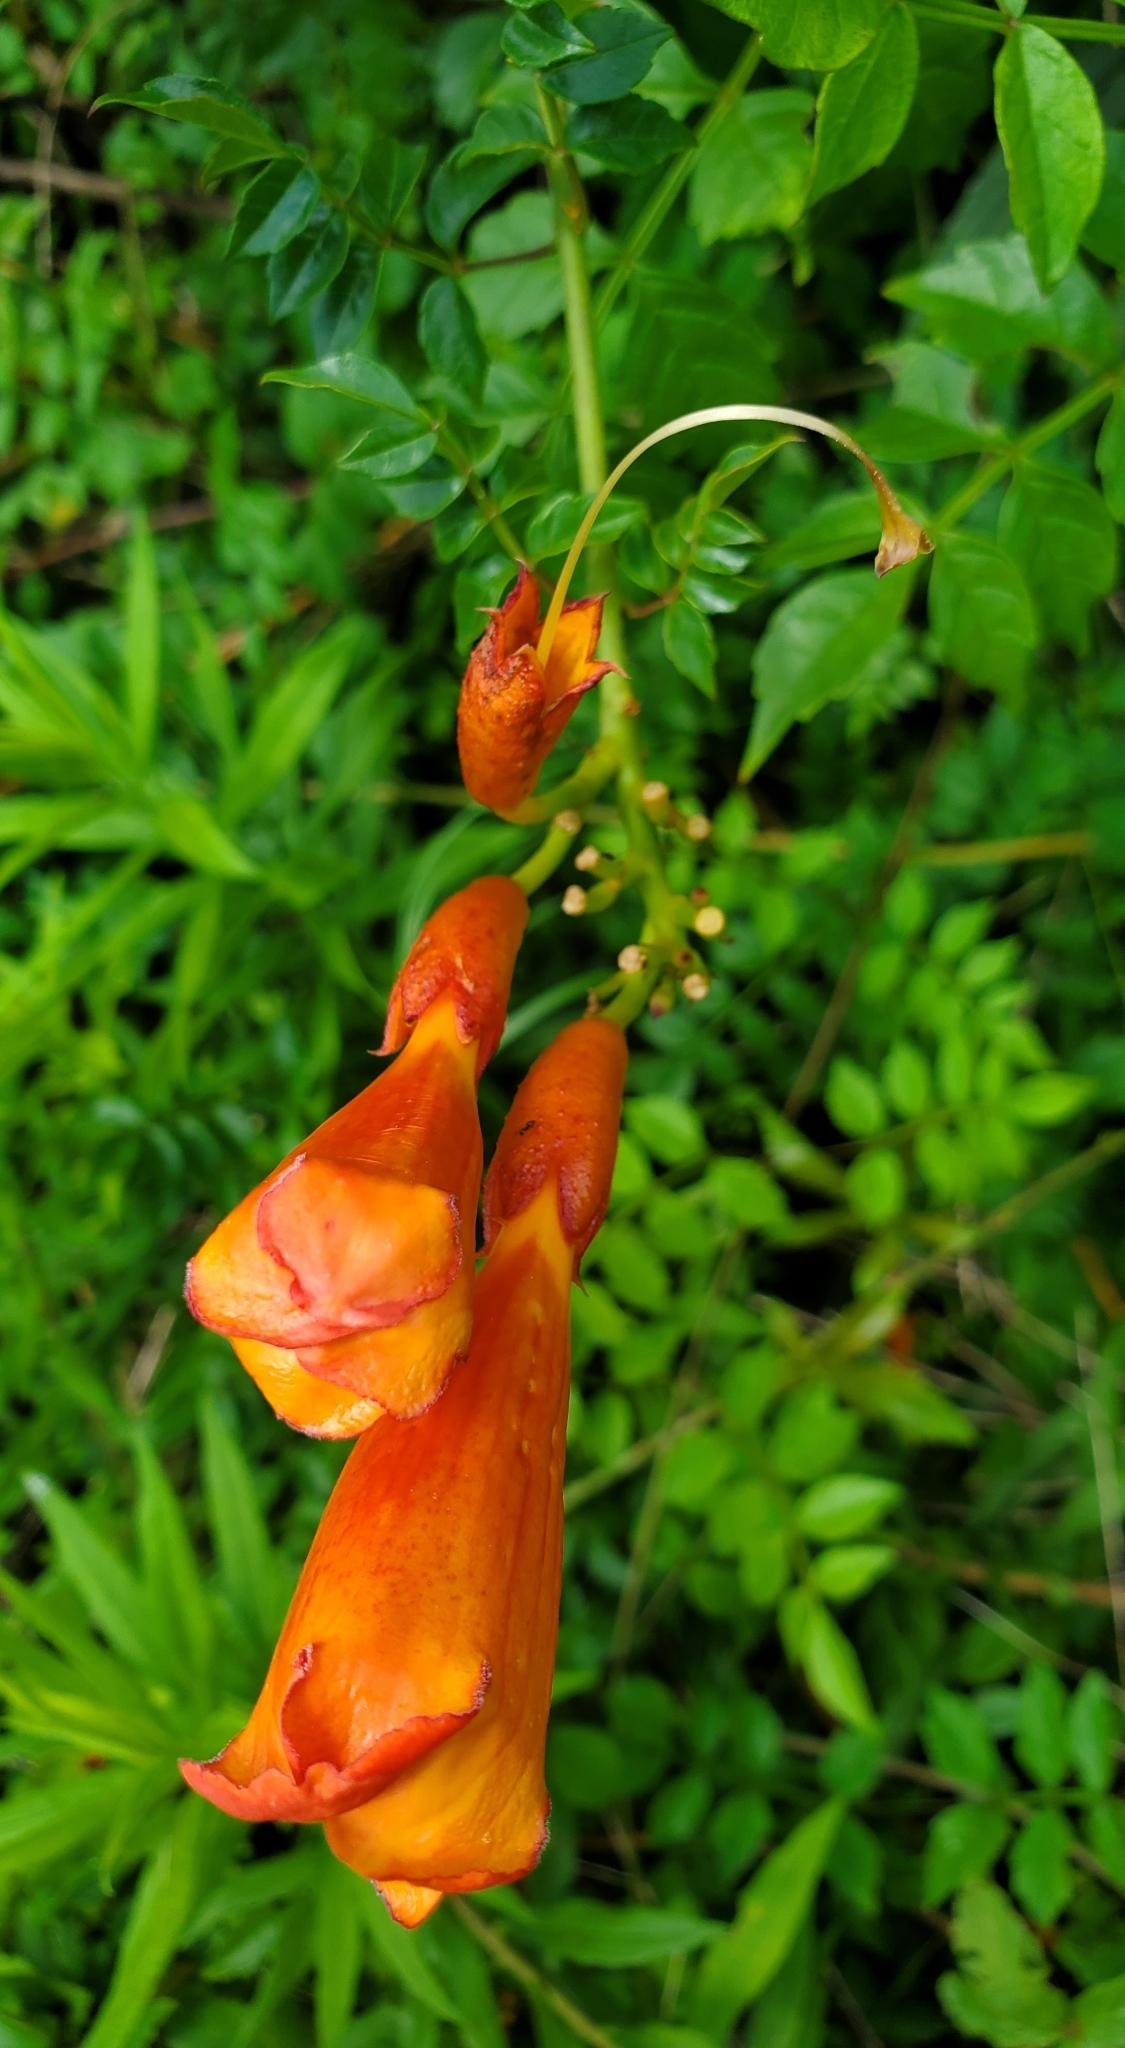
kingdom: Plantae
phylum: Tracheophyta
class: Magnoliopsida
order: Lamiales
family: Bignoniaceae
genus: Campsis
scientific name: Campsis radicans
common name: Trumpet-creeper
